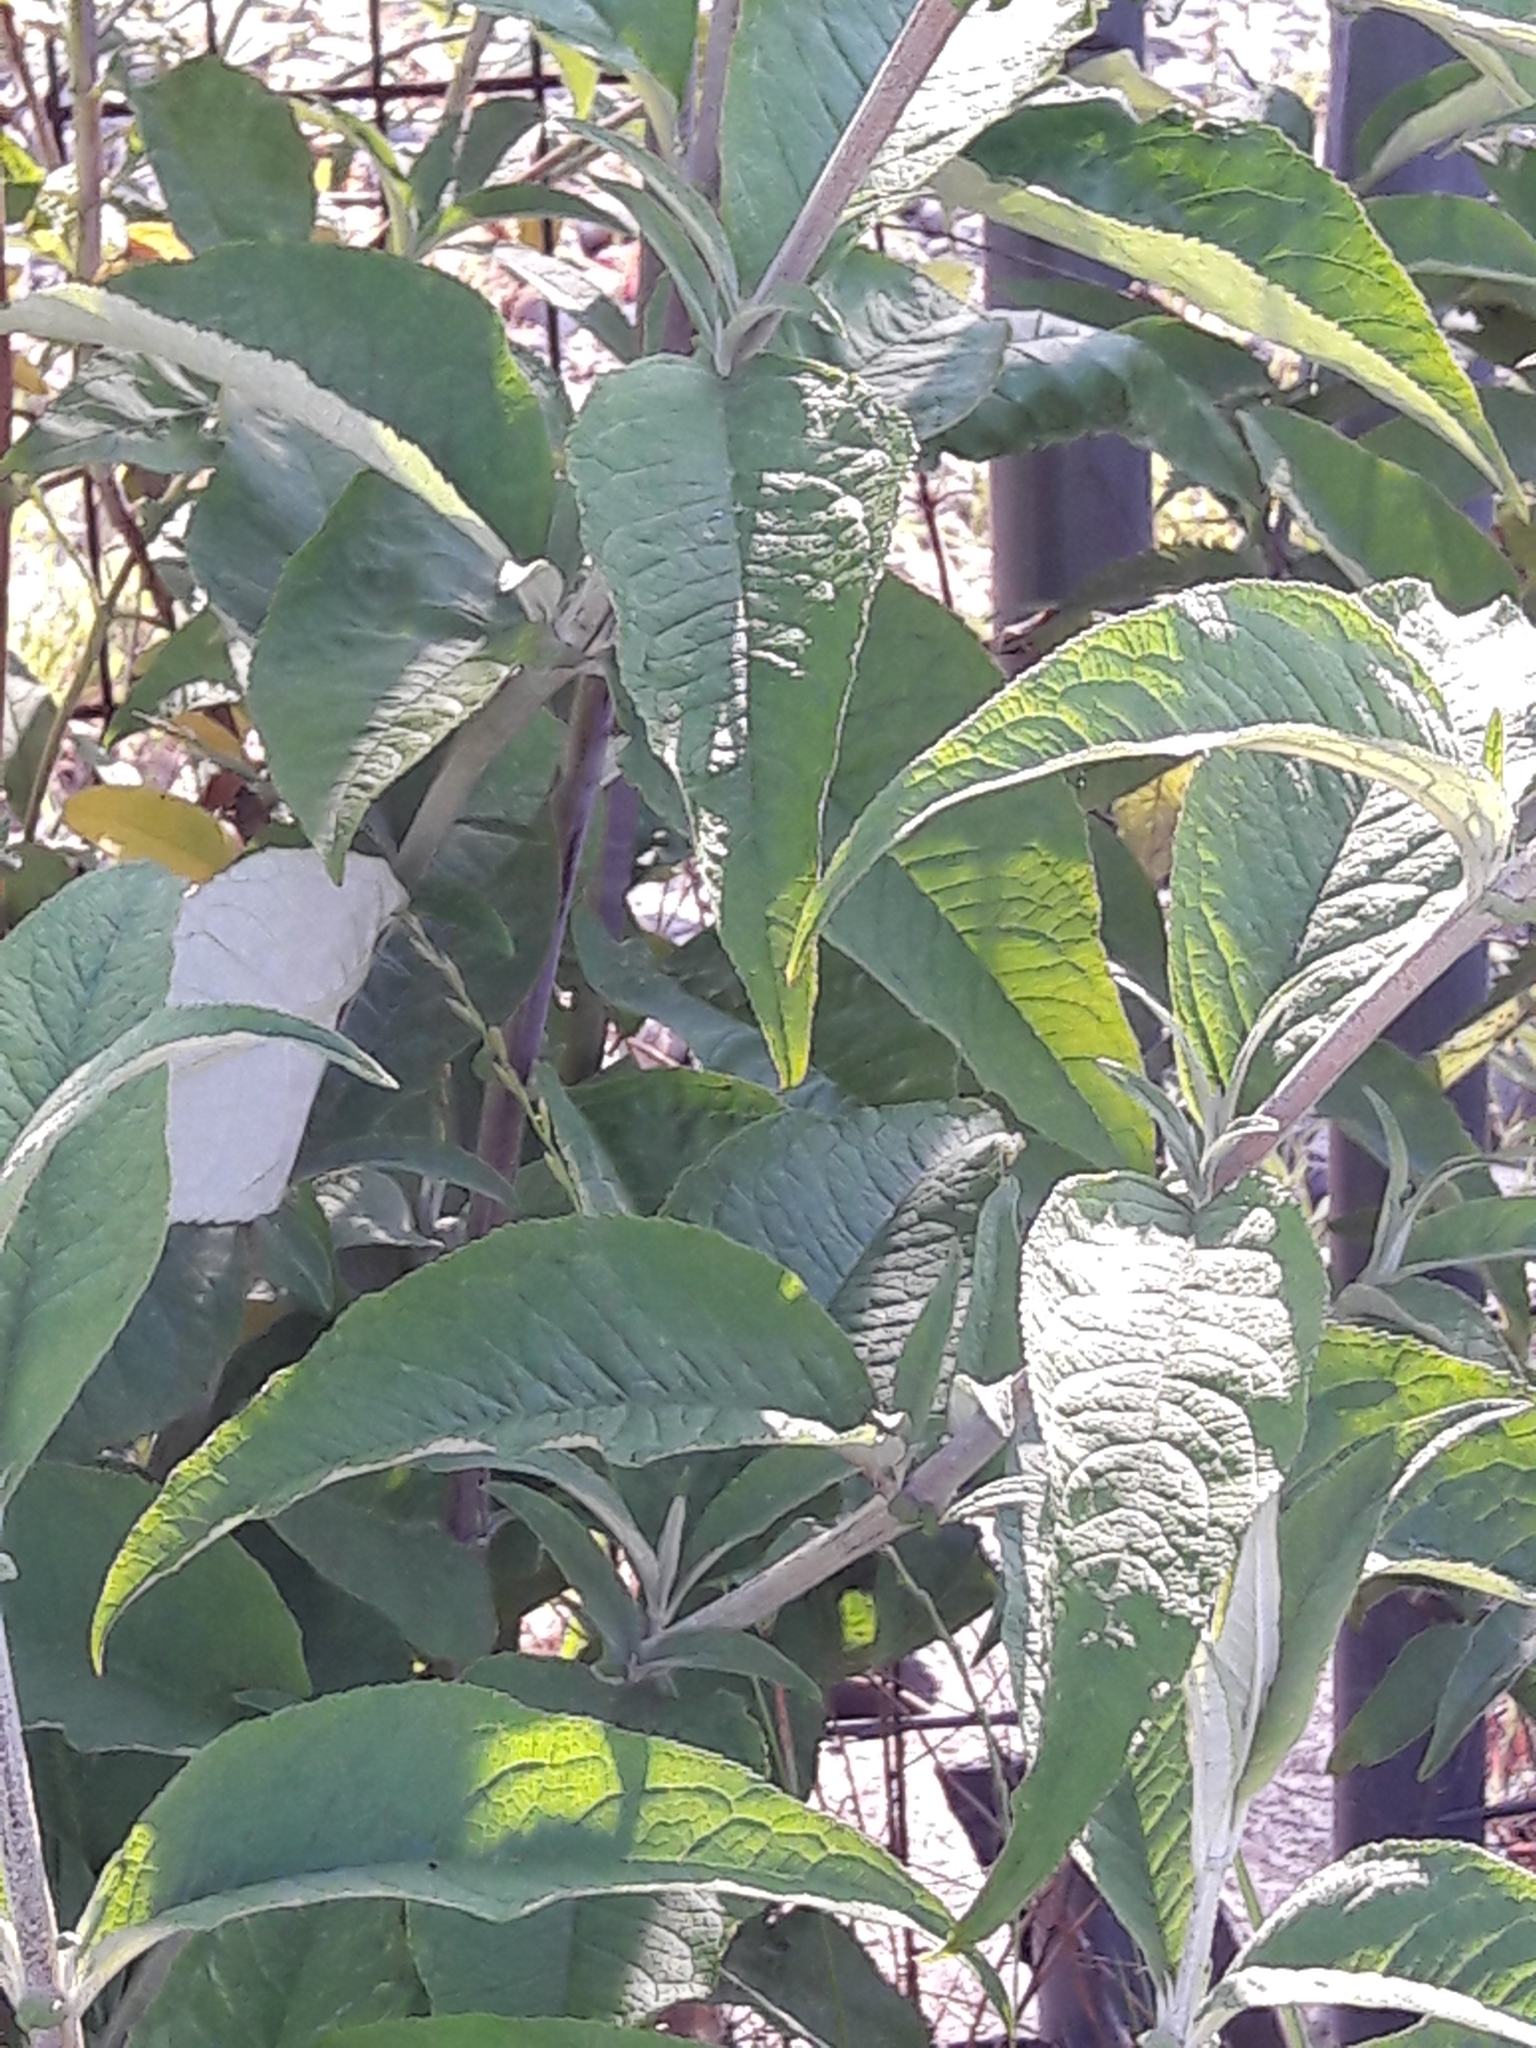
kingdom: Plantae
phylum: Tracheophyta
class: Magnoliopsida
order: Lamiales
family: Scrophulariaceae
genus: Buddleja
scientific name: Buddleja davidii
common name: Butterfly-bush
